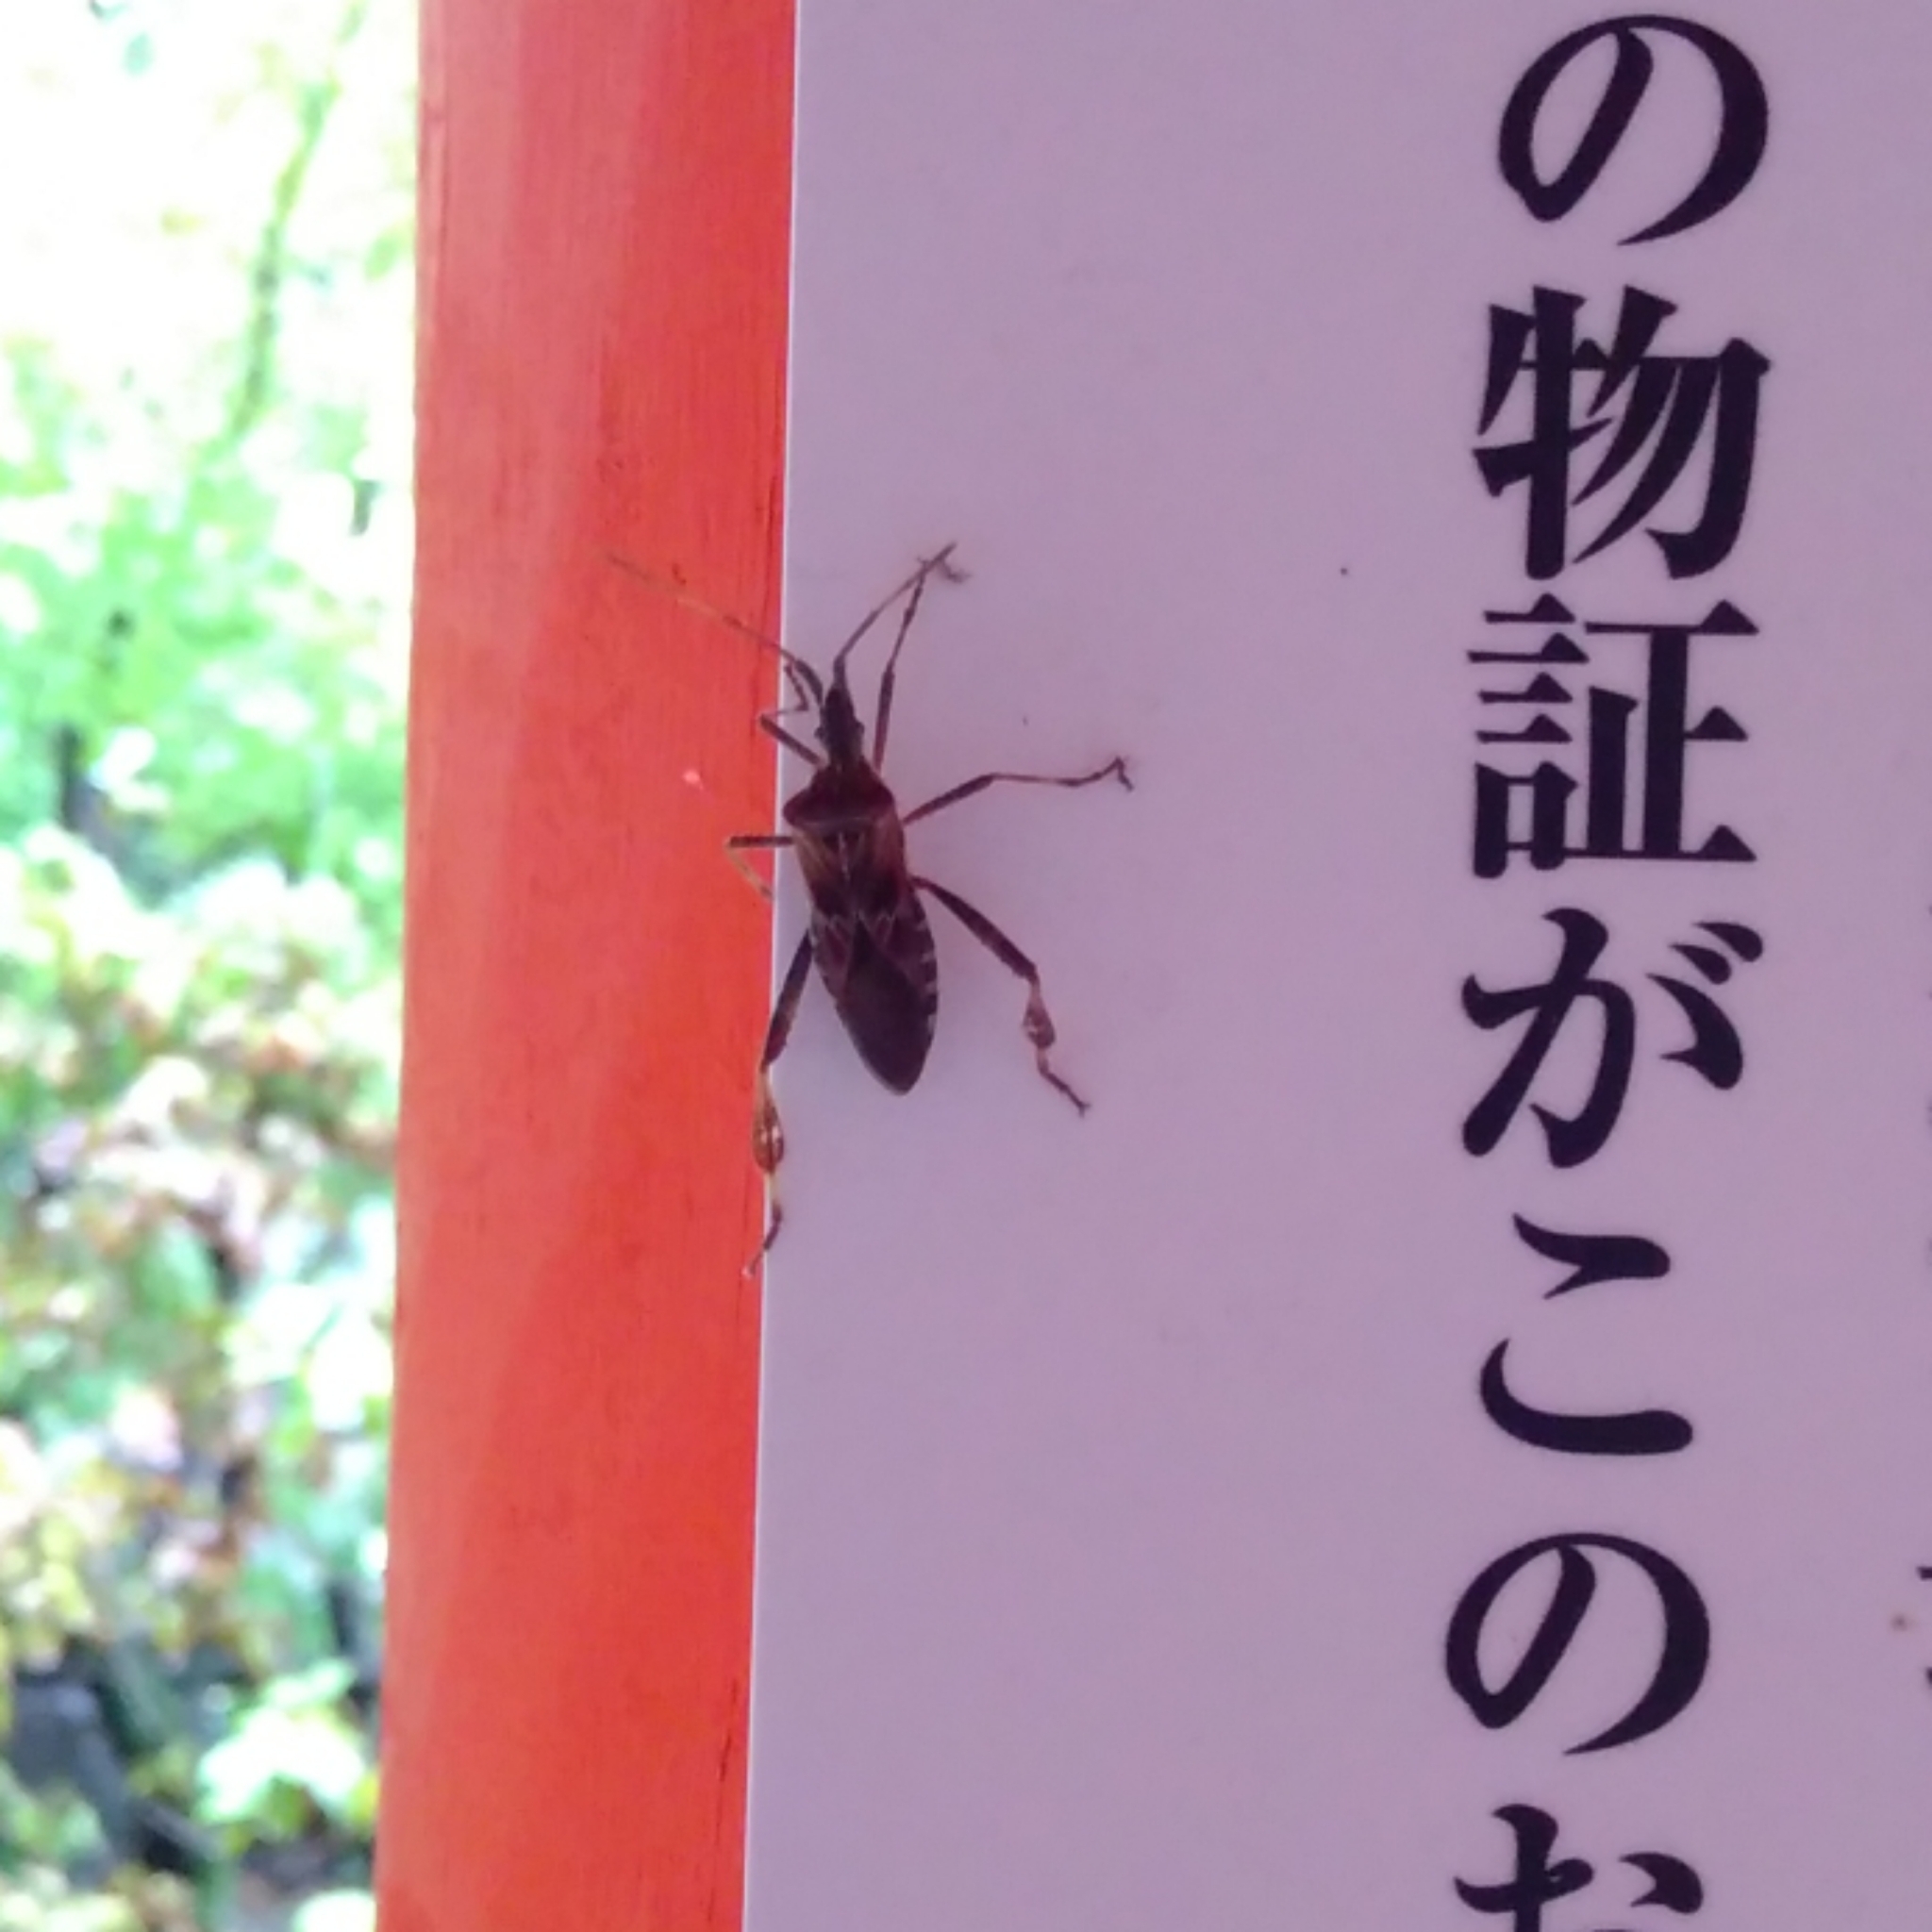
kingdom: Animalia
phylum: Arthropoda
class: Insecta
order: Hemiptera
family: Coreidae
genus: Leptoglossus
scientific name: Leptoglossus occidentalis
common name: Western conifer-seed bug
